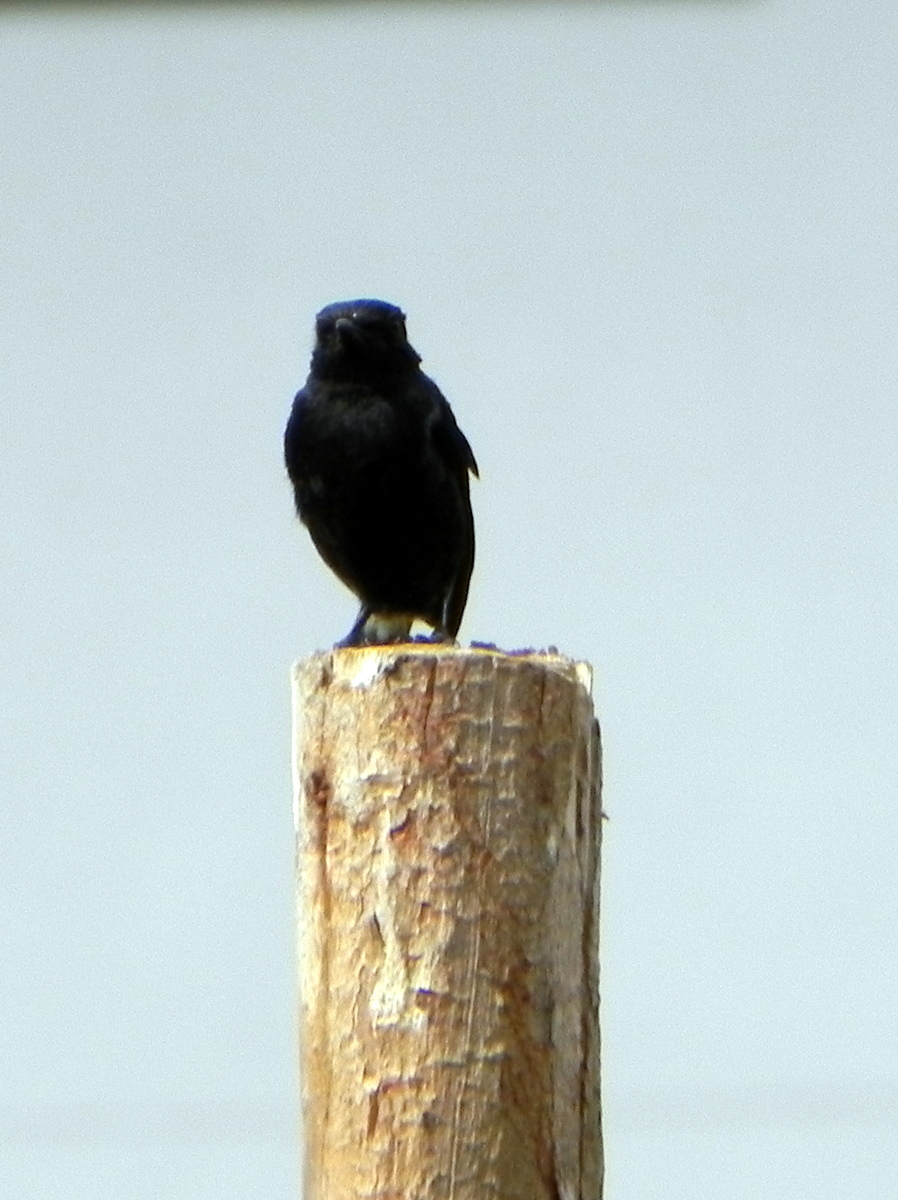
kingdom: Animalia
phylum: Chordata
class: Aves
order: Passeriformes
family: Muscicapidae
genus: Saxicola
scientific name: Saxicola caprata
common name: Pied bush chat
